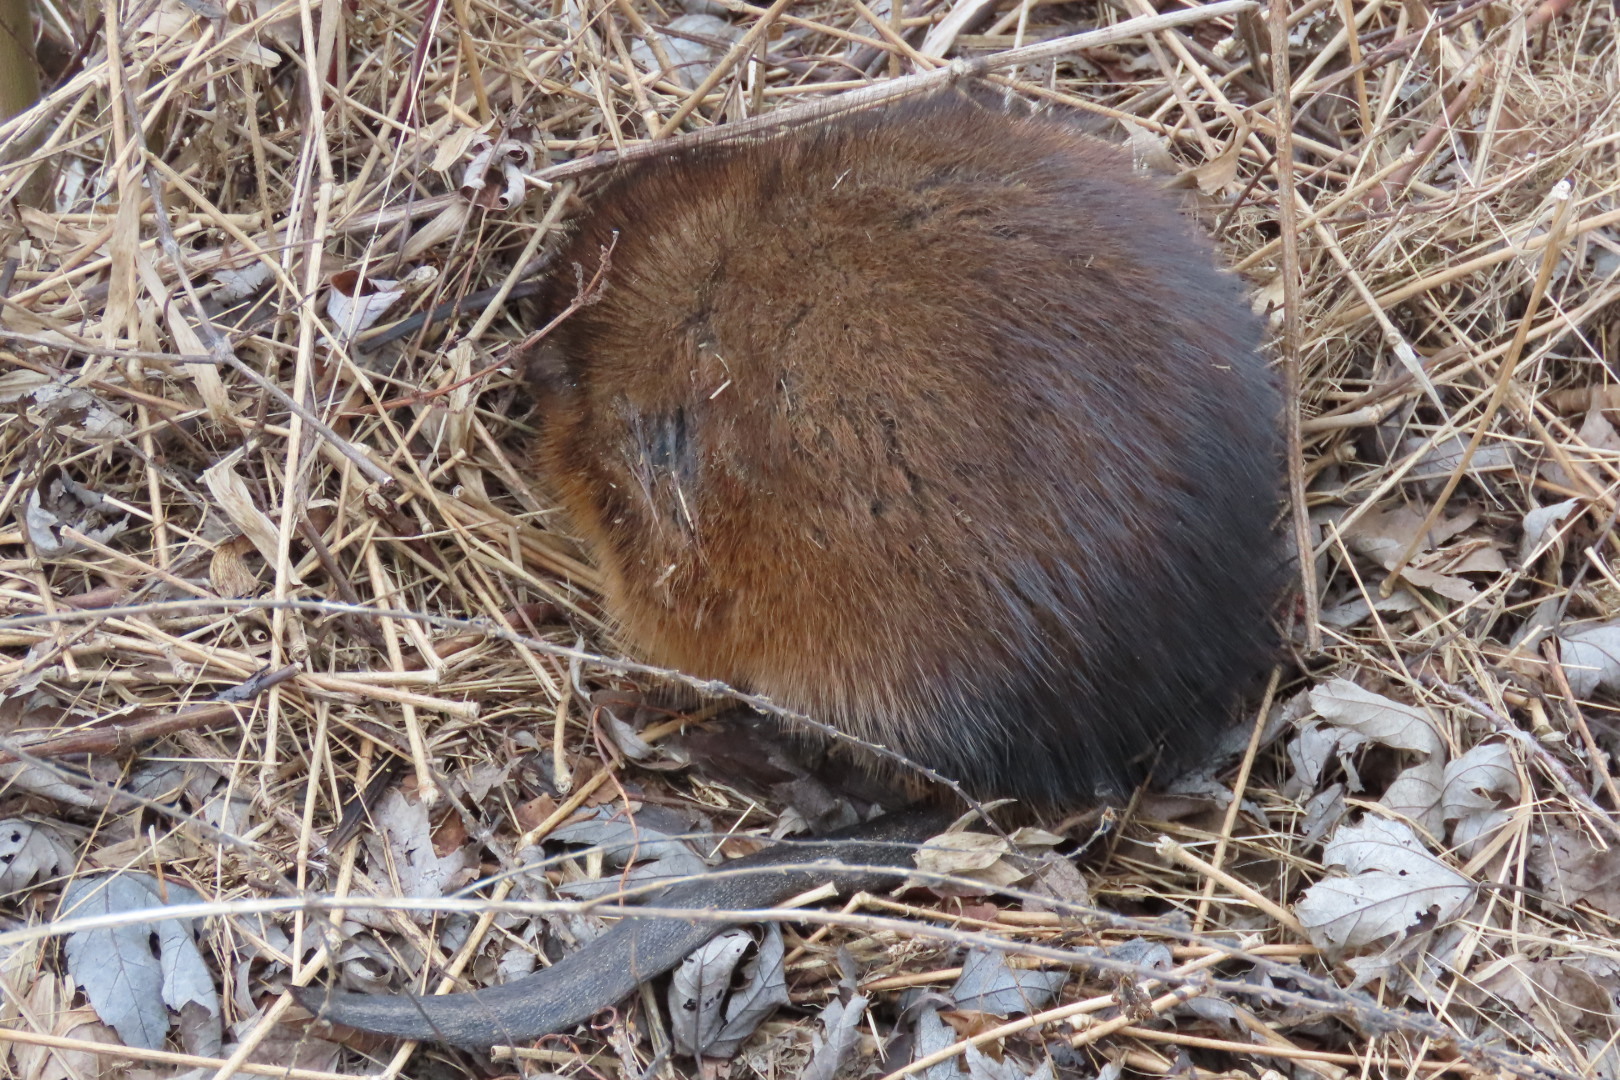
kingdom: Animalia
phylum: Chordata
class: Mammalia
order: Rodentia
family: Cricetidae
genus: Ondatra
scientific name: Ondatra zibethicus
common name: Muskrat
